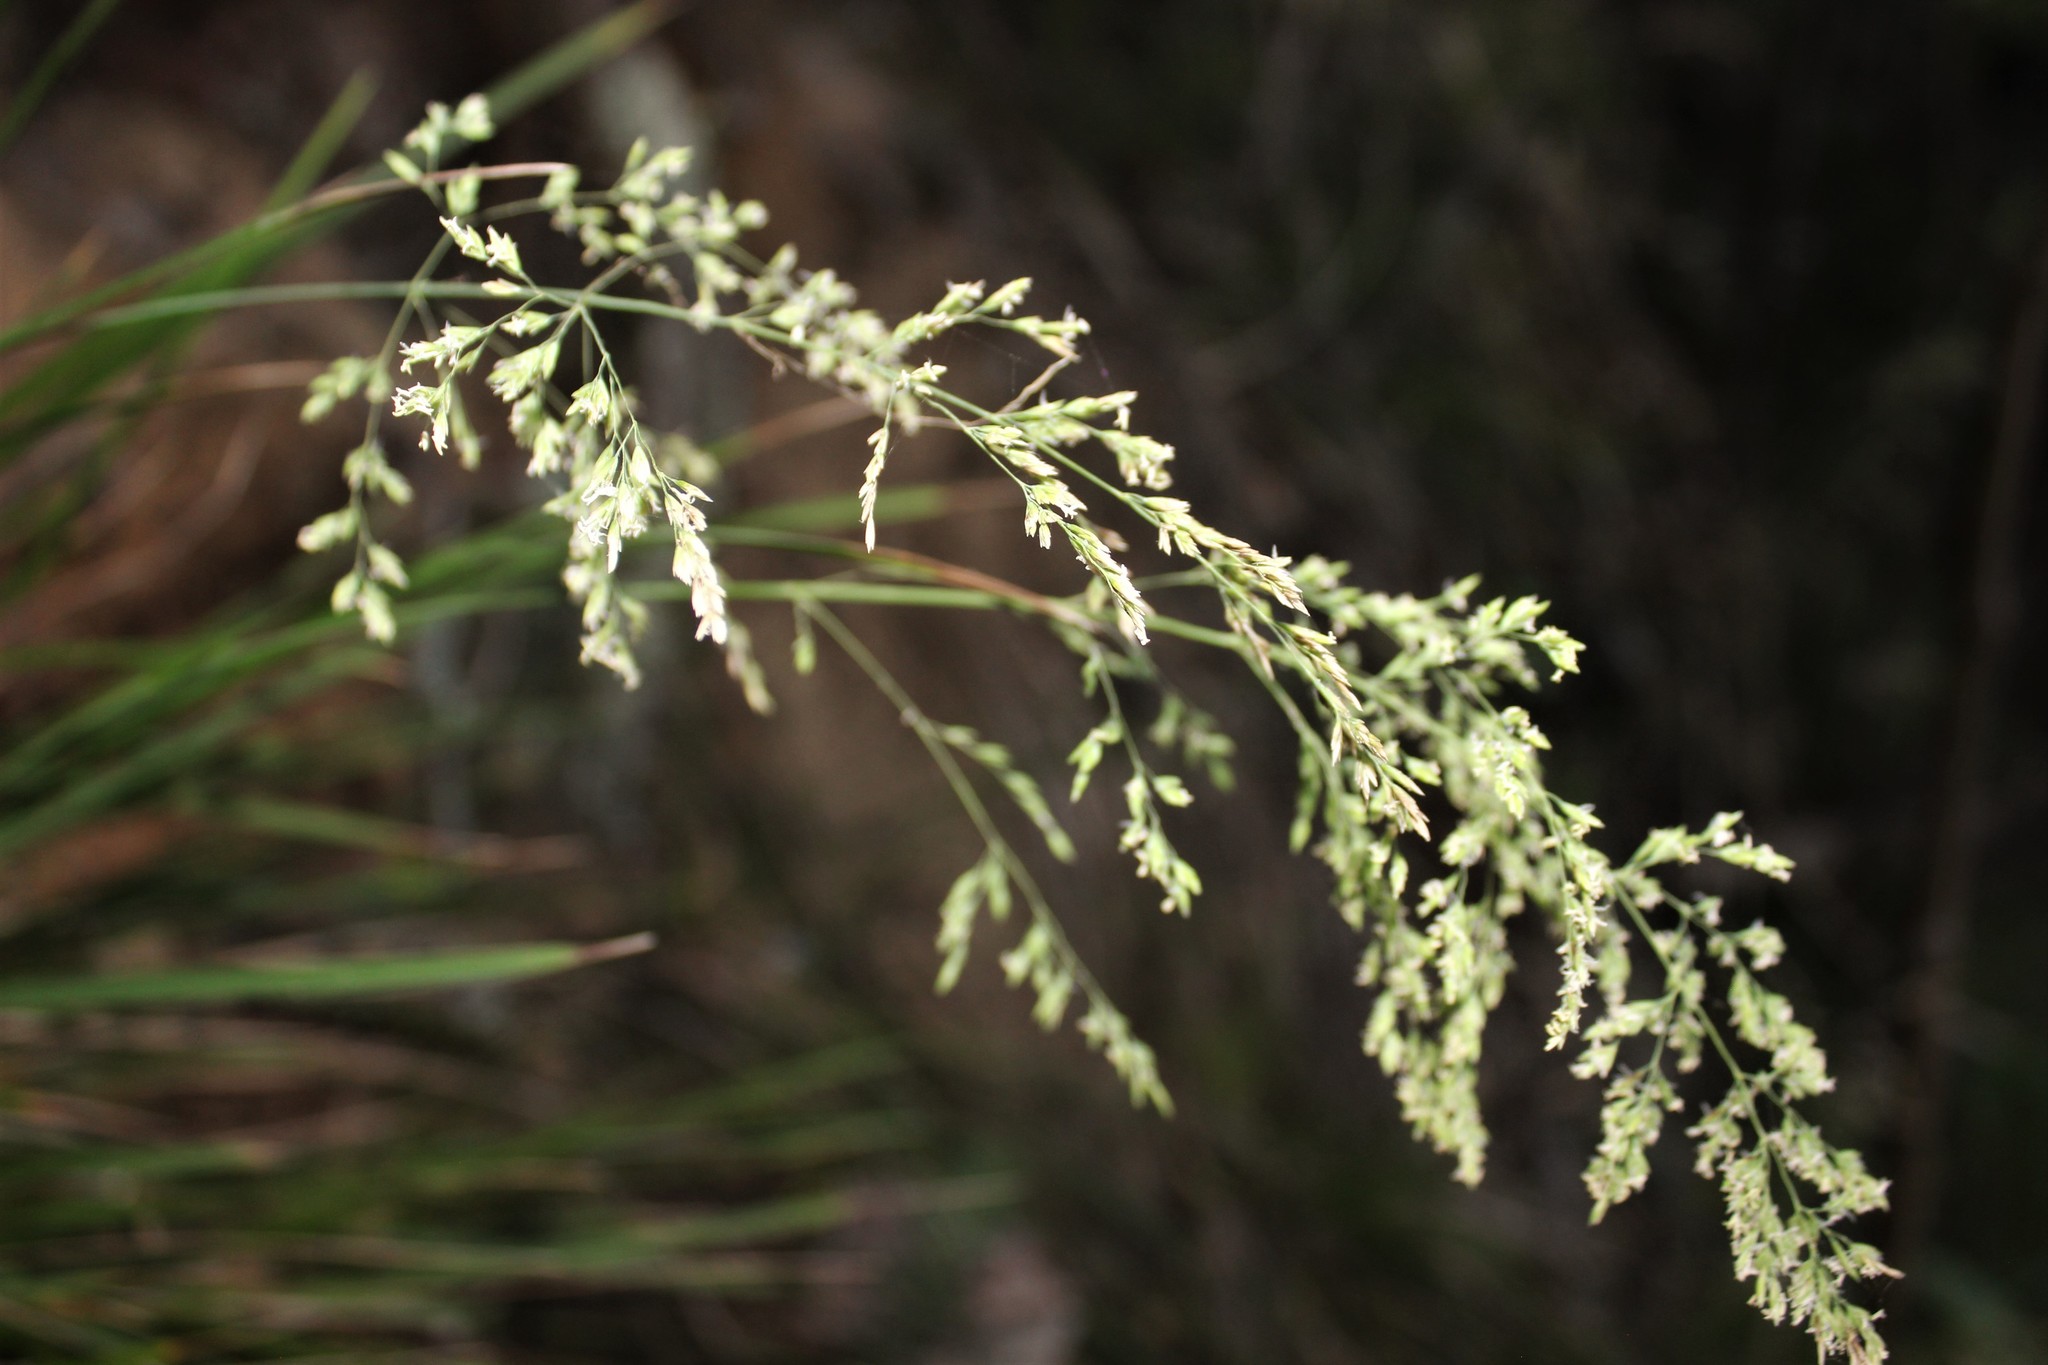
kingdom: Plantae
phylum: Tracheophyta
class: Liliopsida
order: Poales
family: Poaceae
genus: Poa
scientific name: Poa anceps
